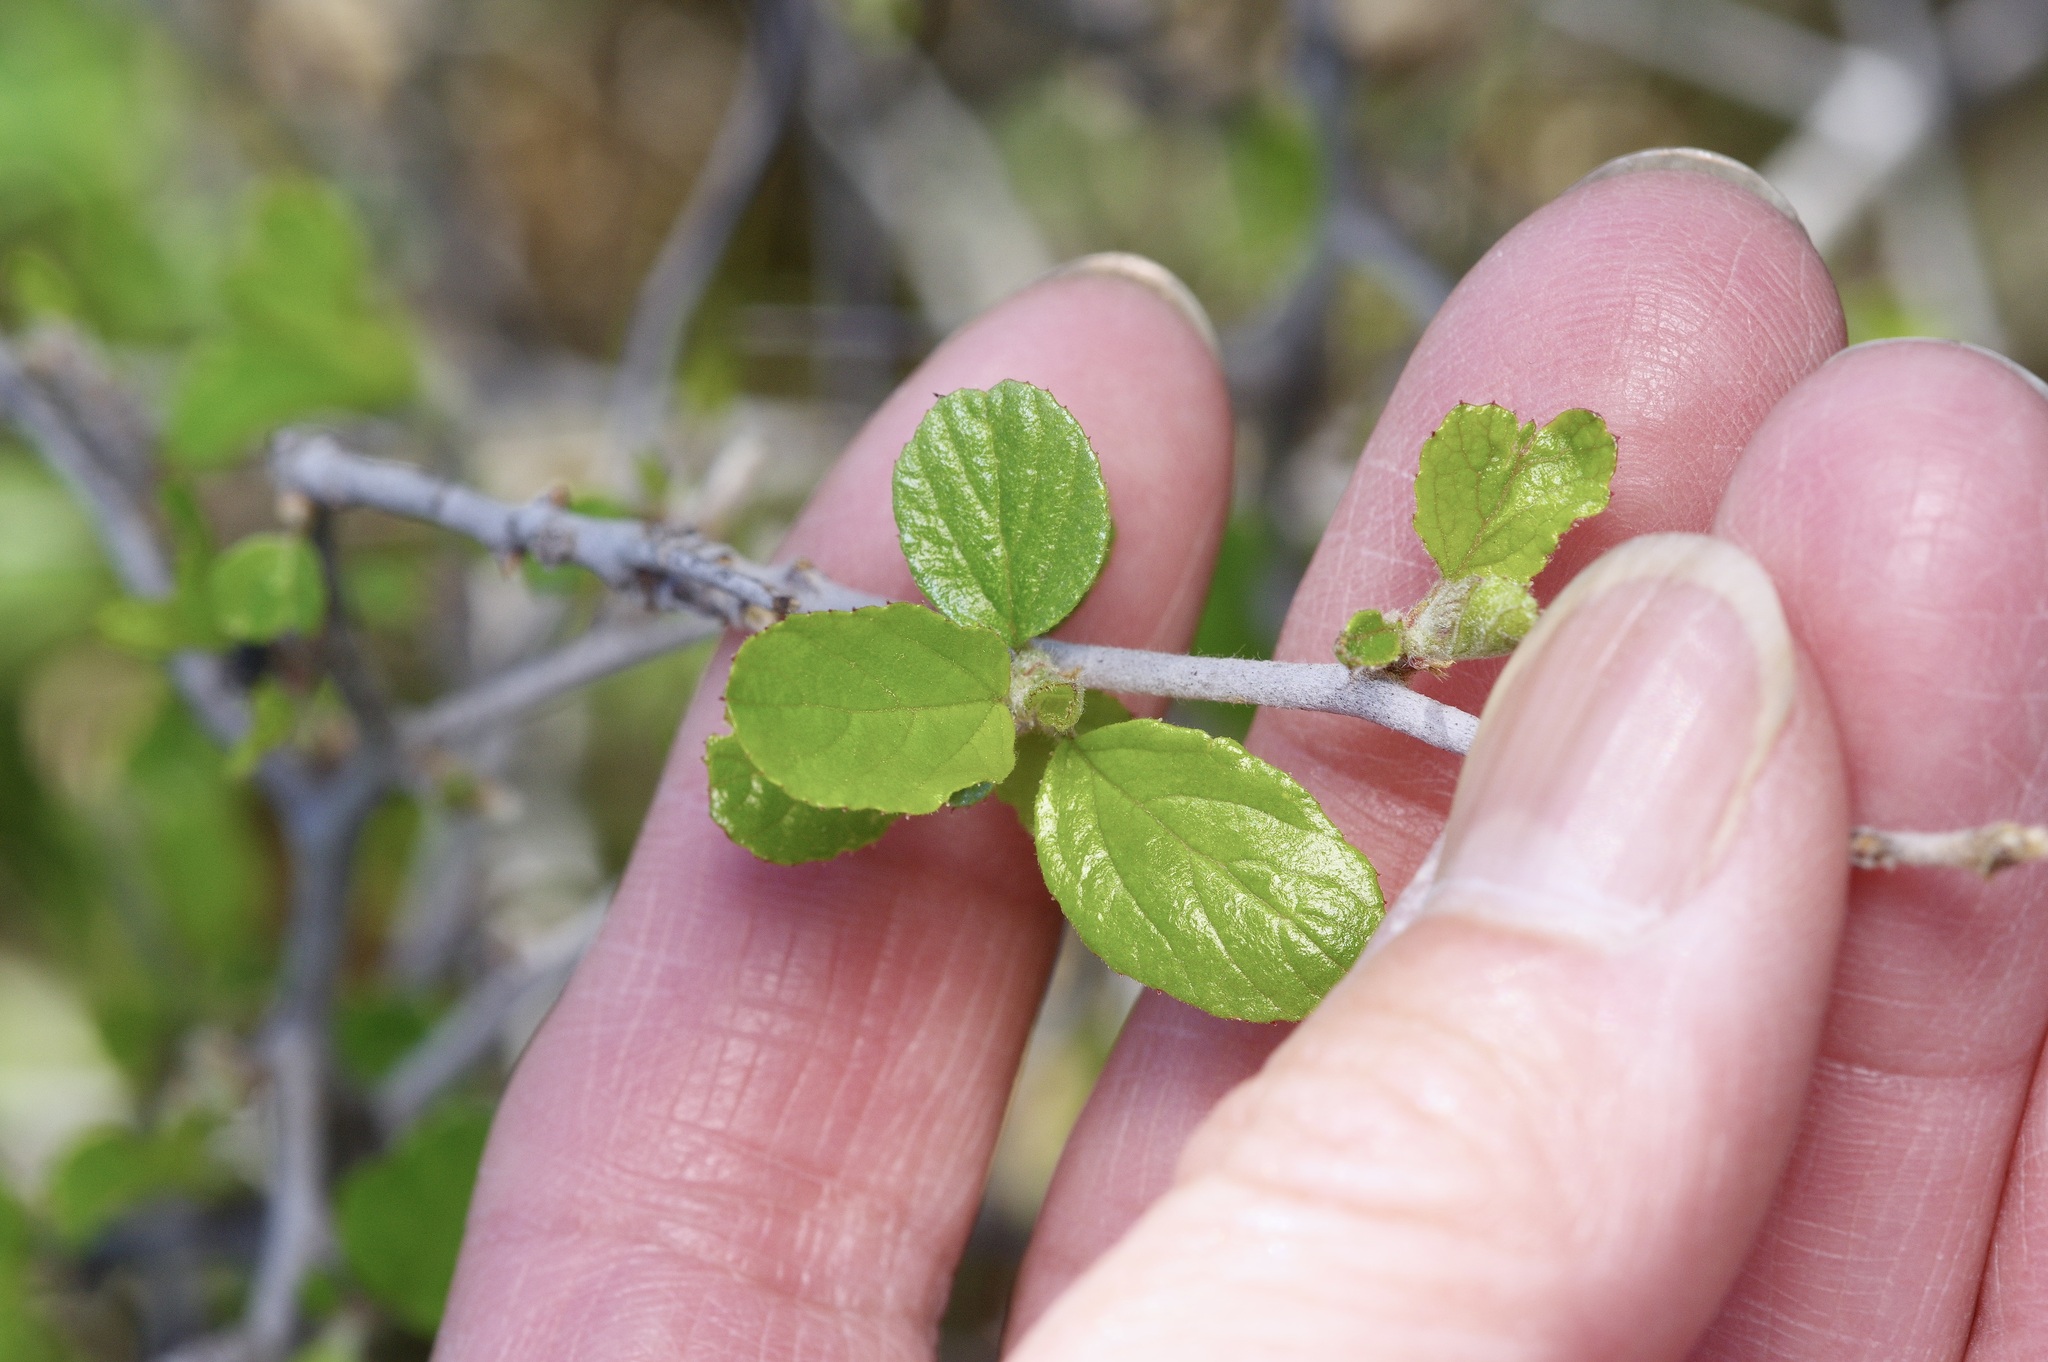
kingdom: Plantae
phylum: Tracheophyta
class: Magnoliopsida
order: Rosales
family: Rhamnaceae
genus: Colubrina
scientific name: Colubrina texensis
